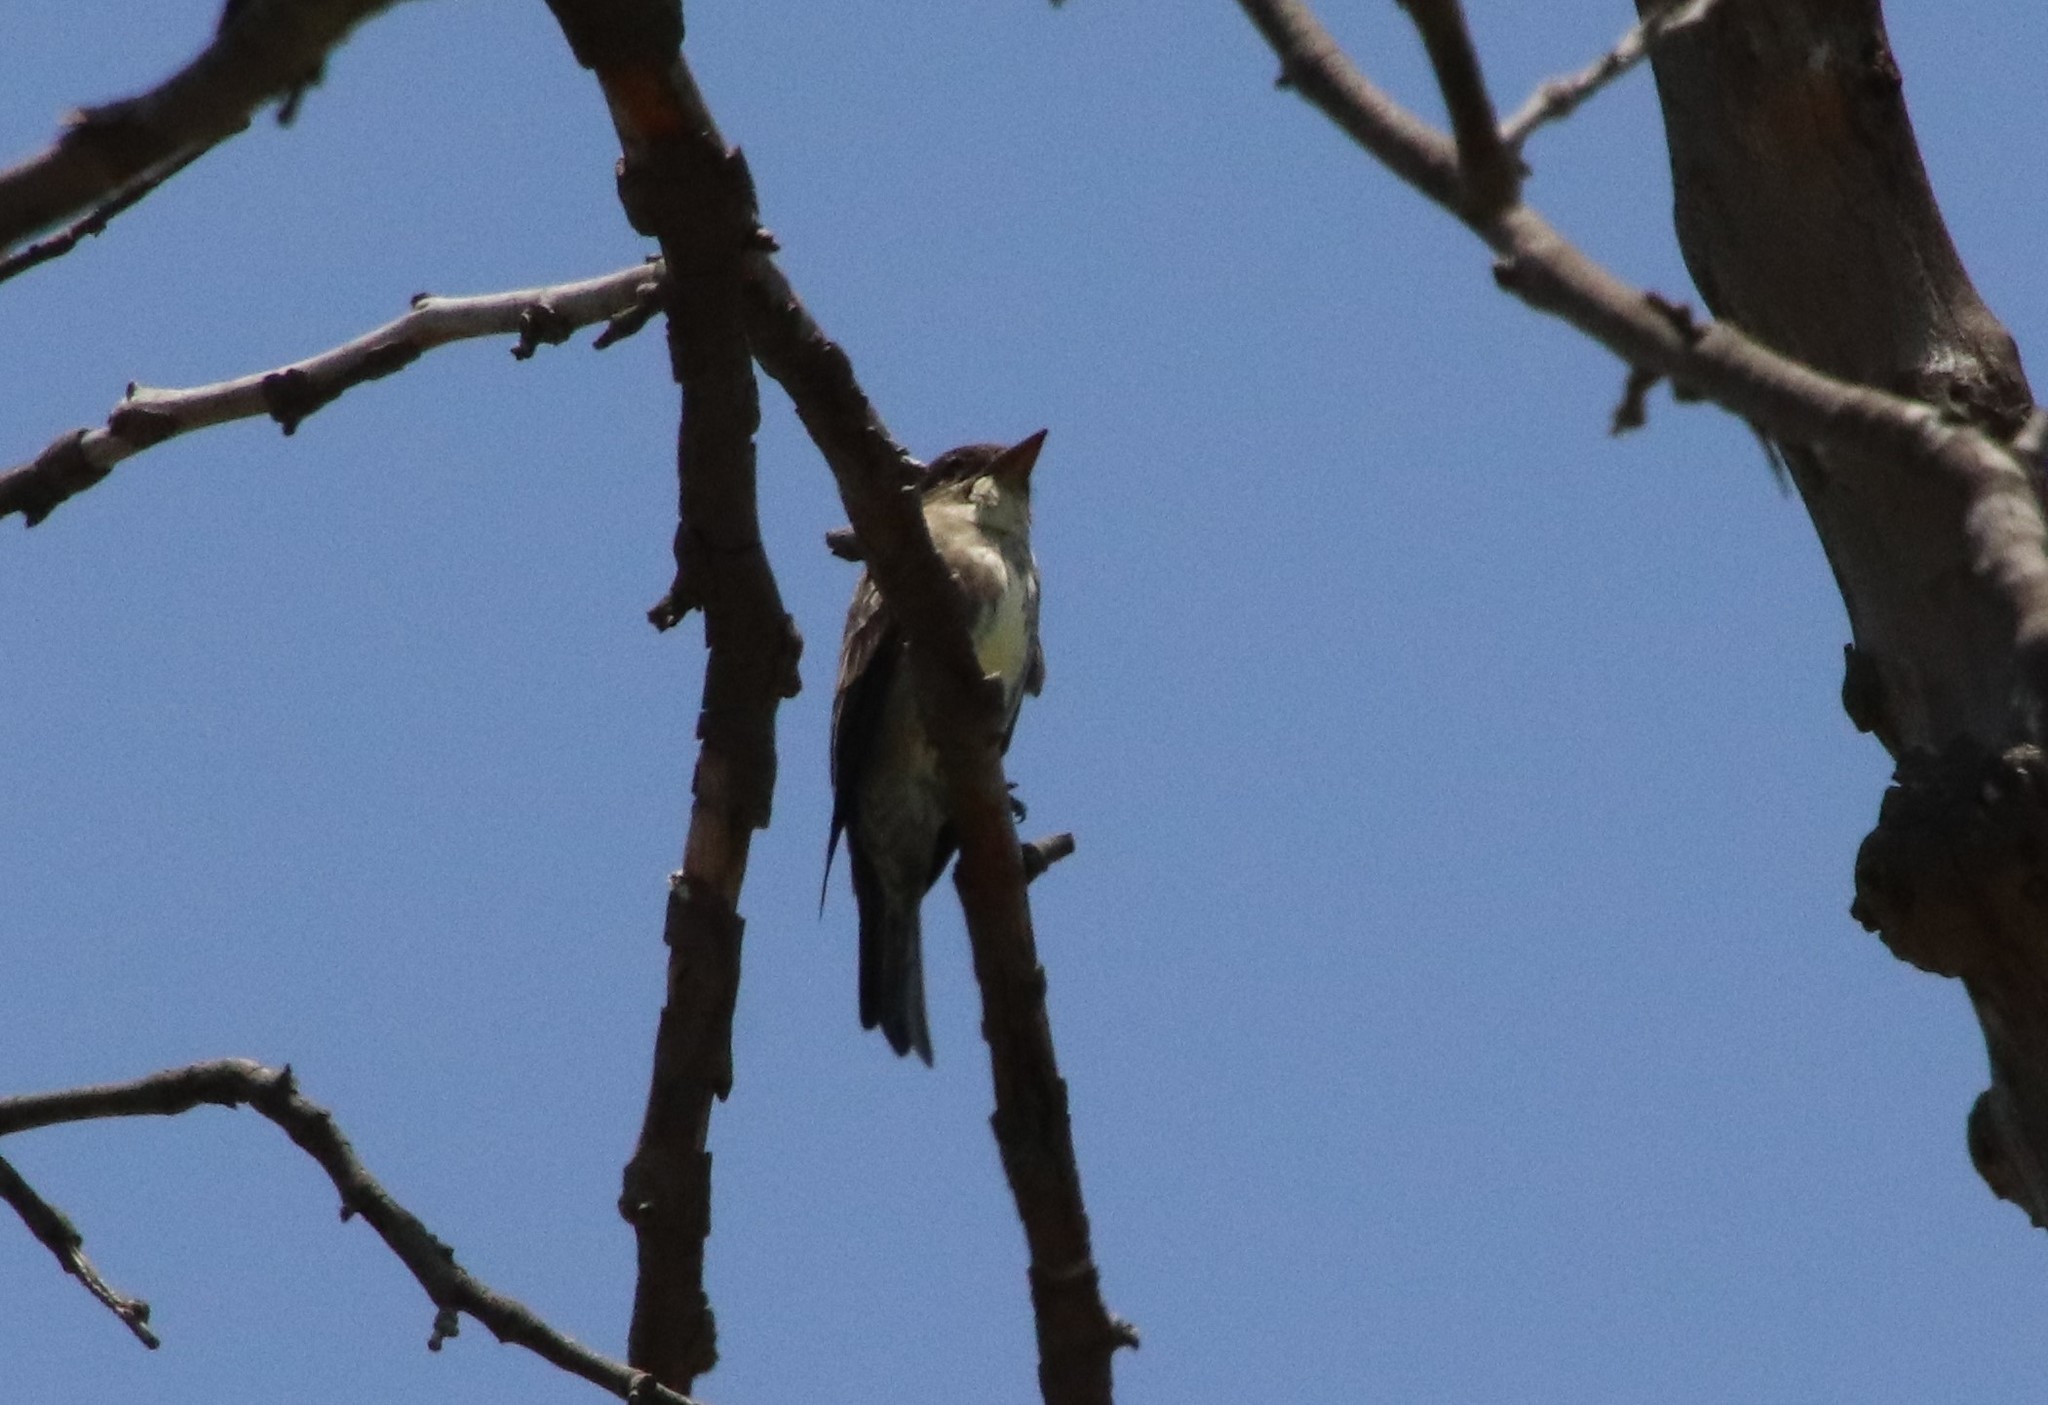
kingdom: Animalia
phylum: Chordata
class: Aves
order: Passeriformes
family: Tyrannidae
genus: Contopus
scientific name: Contopus cooperi
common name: Olive-sided flycatcher
